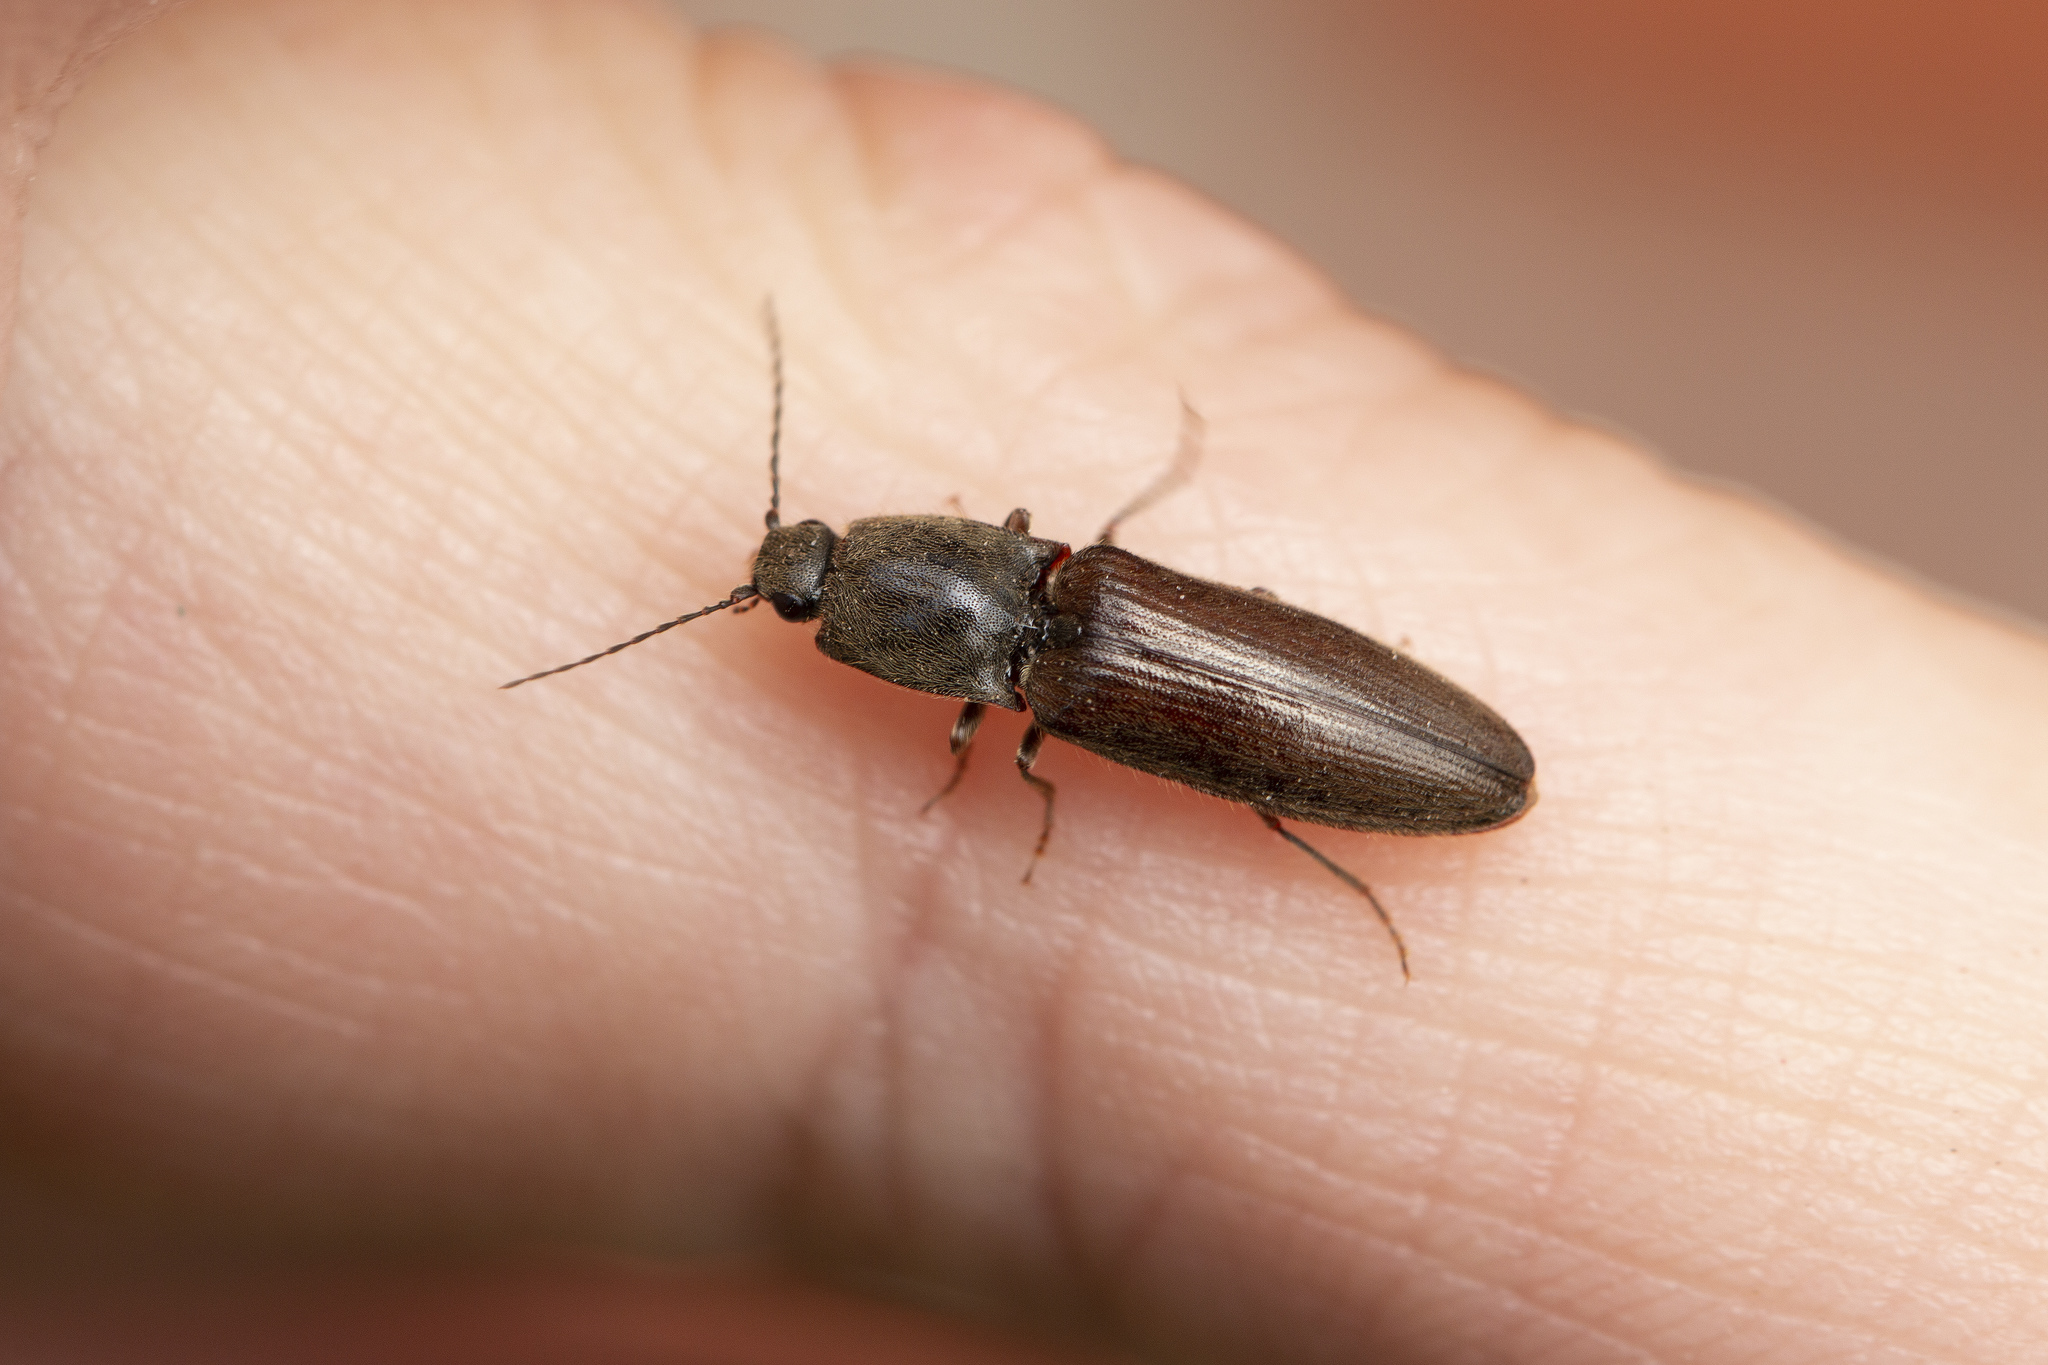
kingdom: Animalia
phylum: Arthropoda
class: Insecta
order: Coleoptera
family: Elateridae
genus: Athous
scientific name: Athous haemorrhoidalis
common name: Red-brown click beetle
